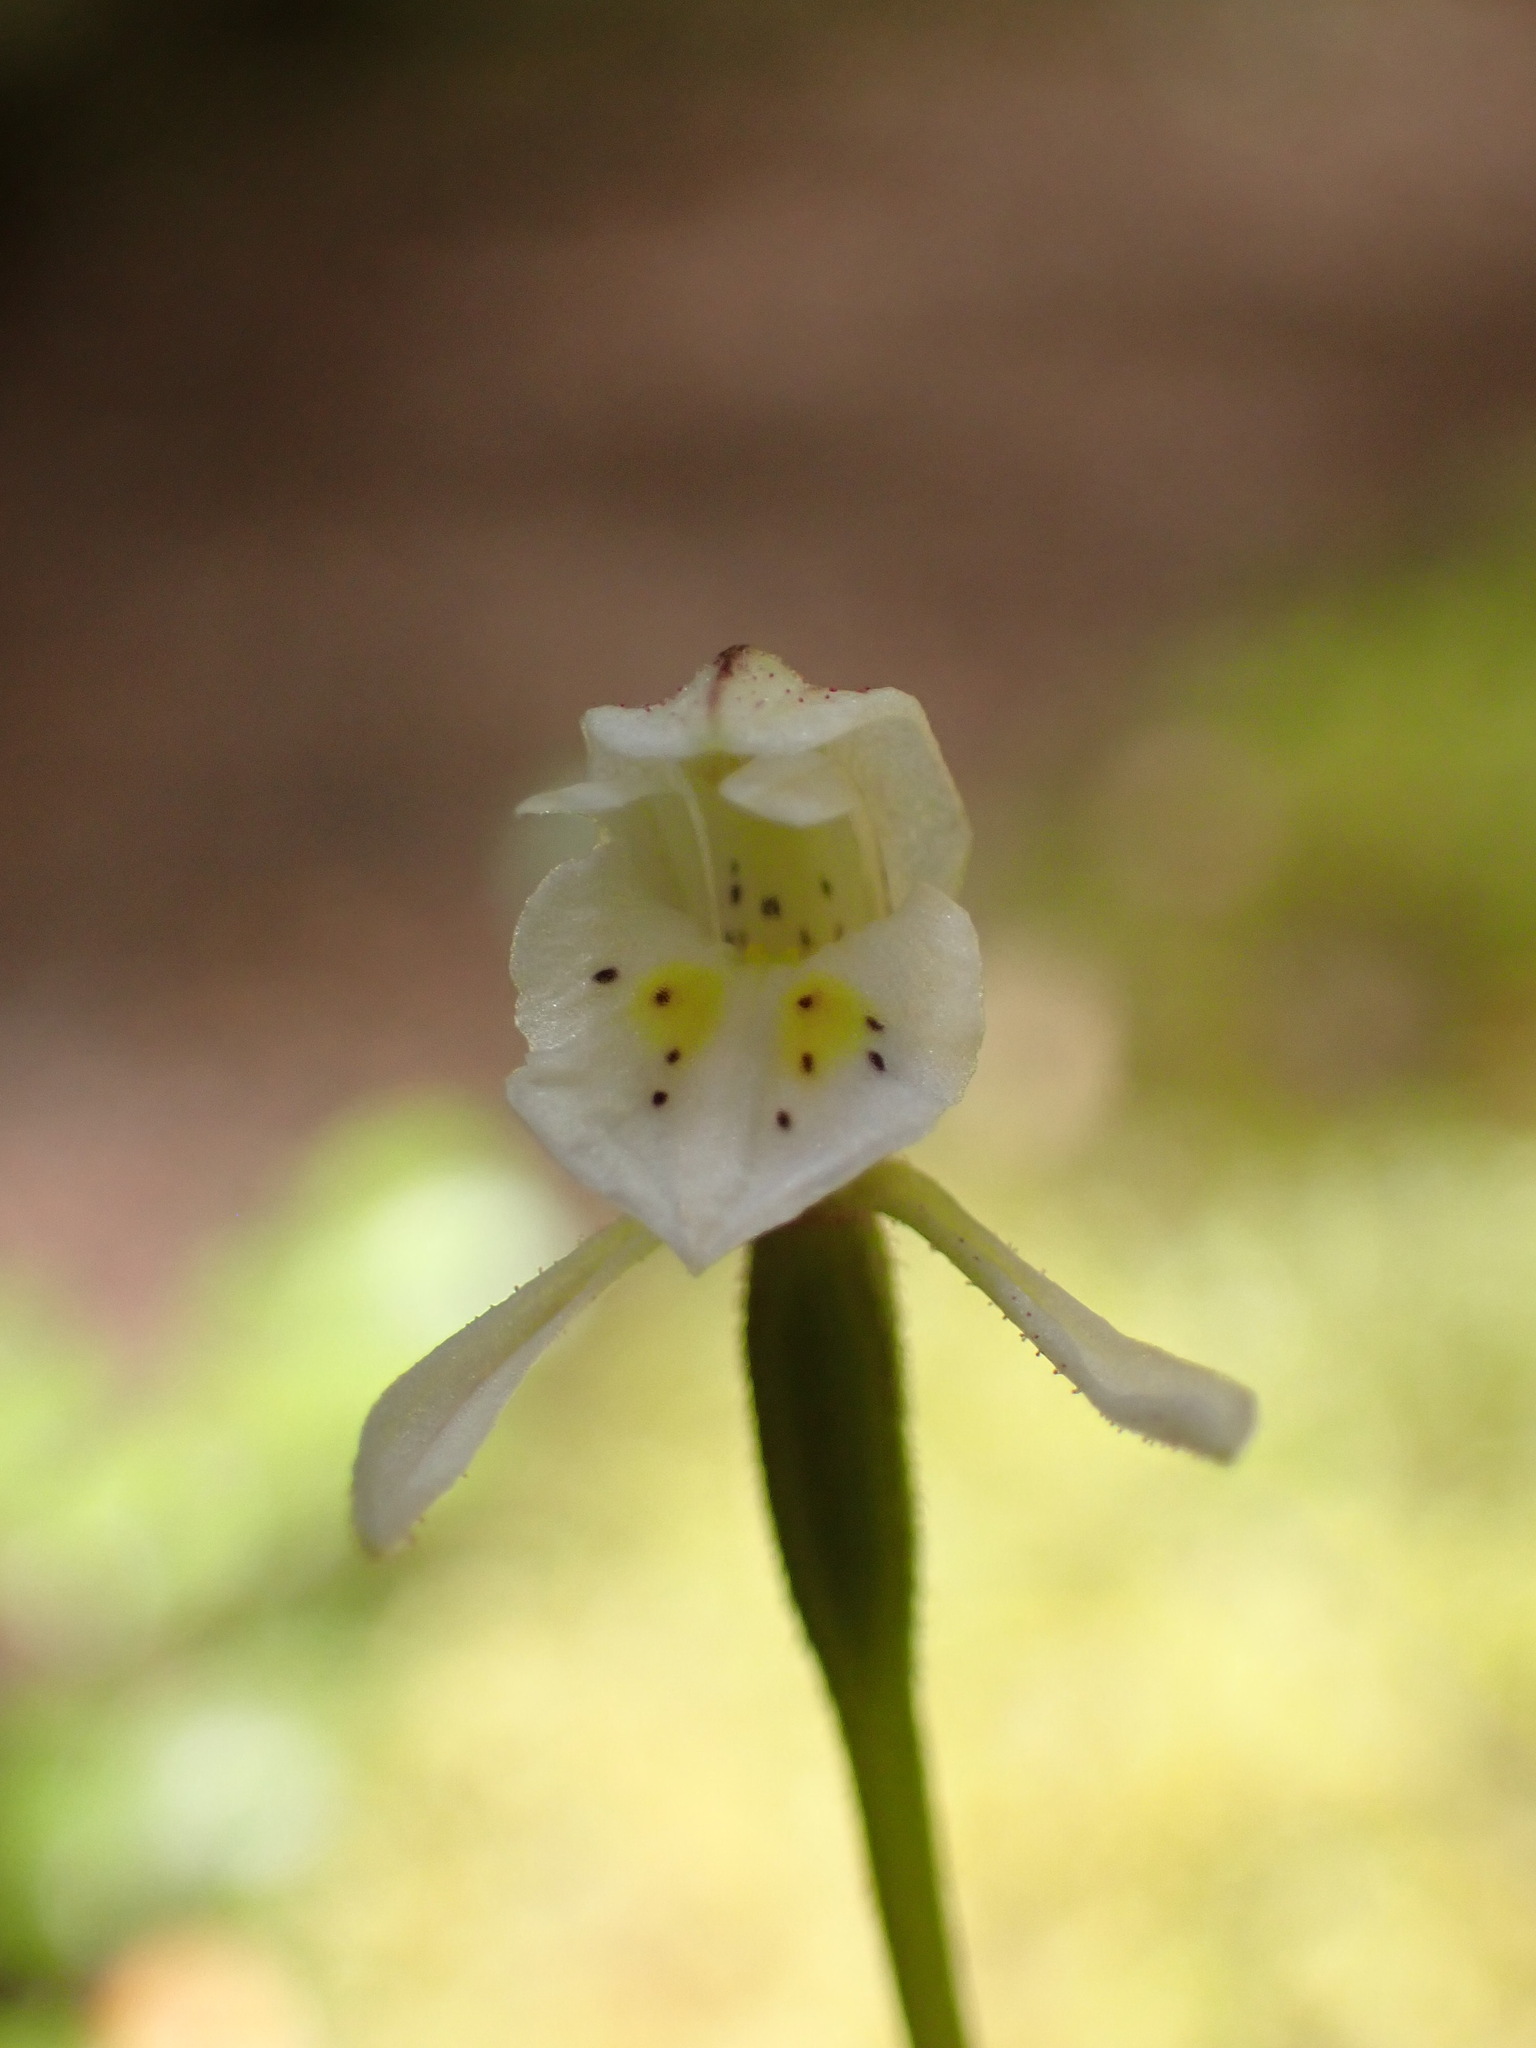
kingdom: Plantae
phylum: Tracheophyta
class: Liliopsida
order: Asparagales
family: Orchidaceae
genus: Aporostylis
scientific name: Aporostylis bifolia
